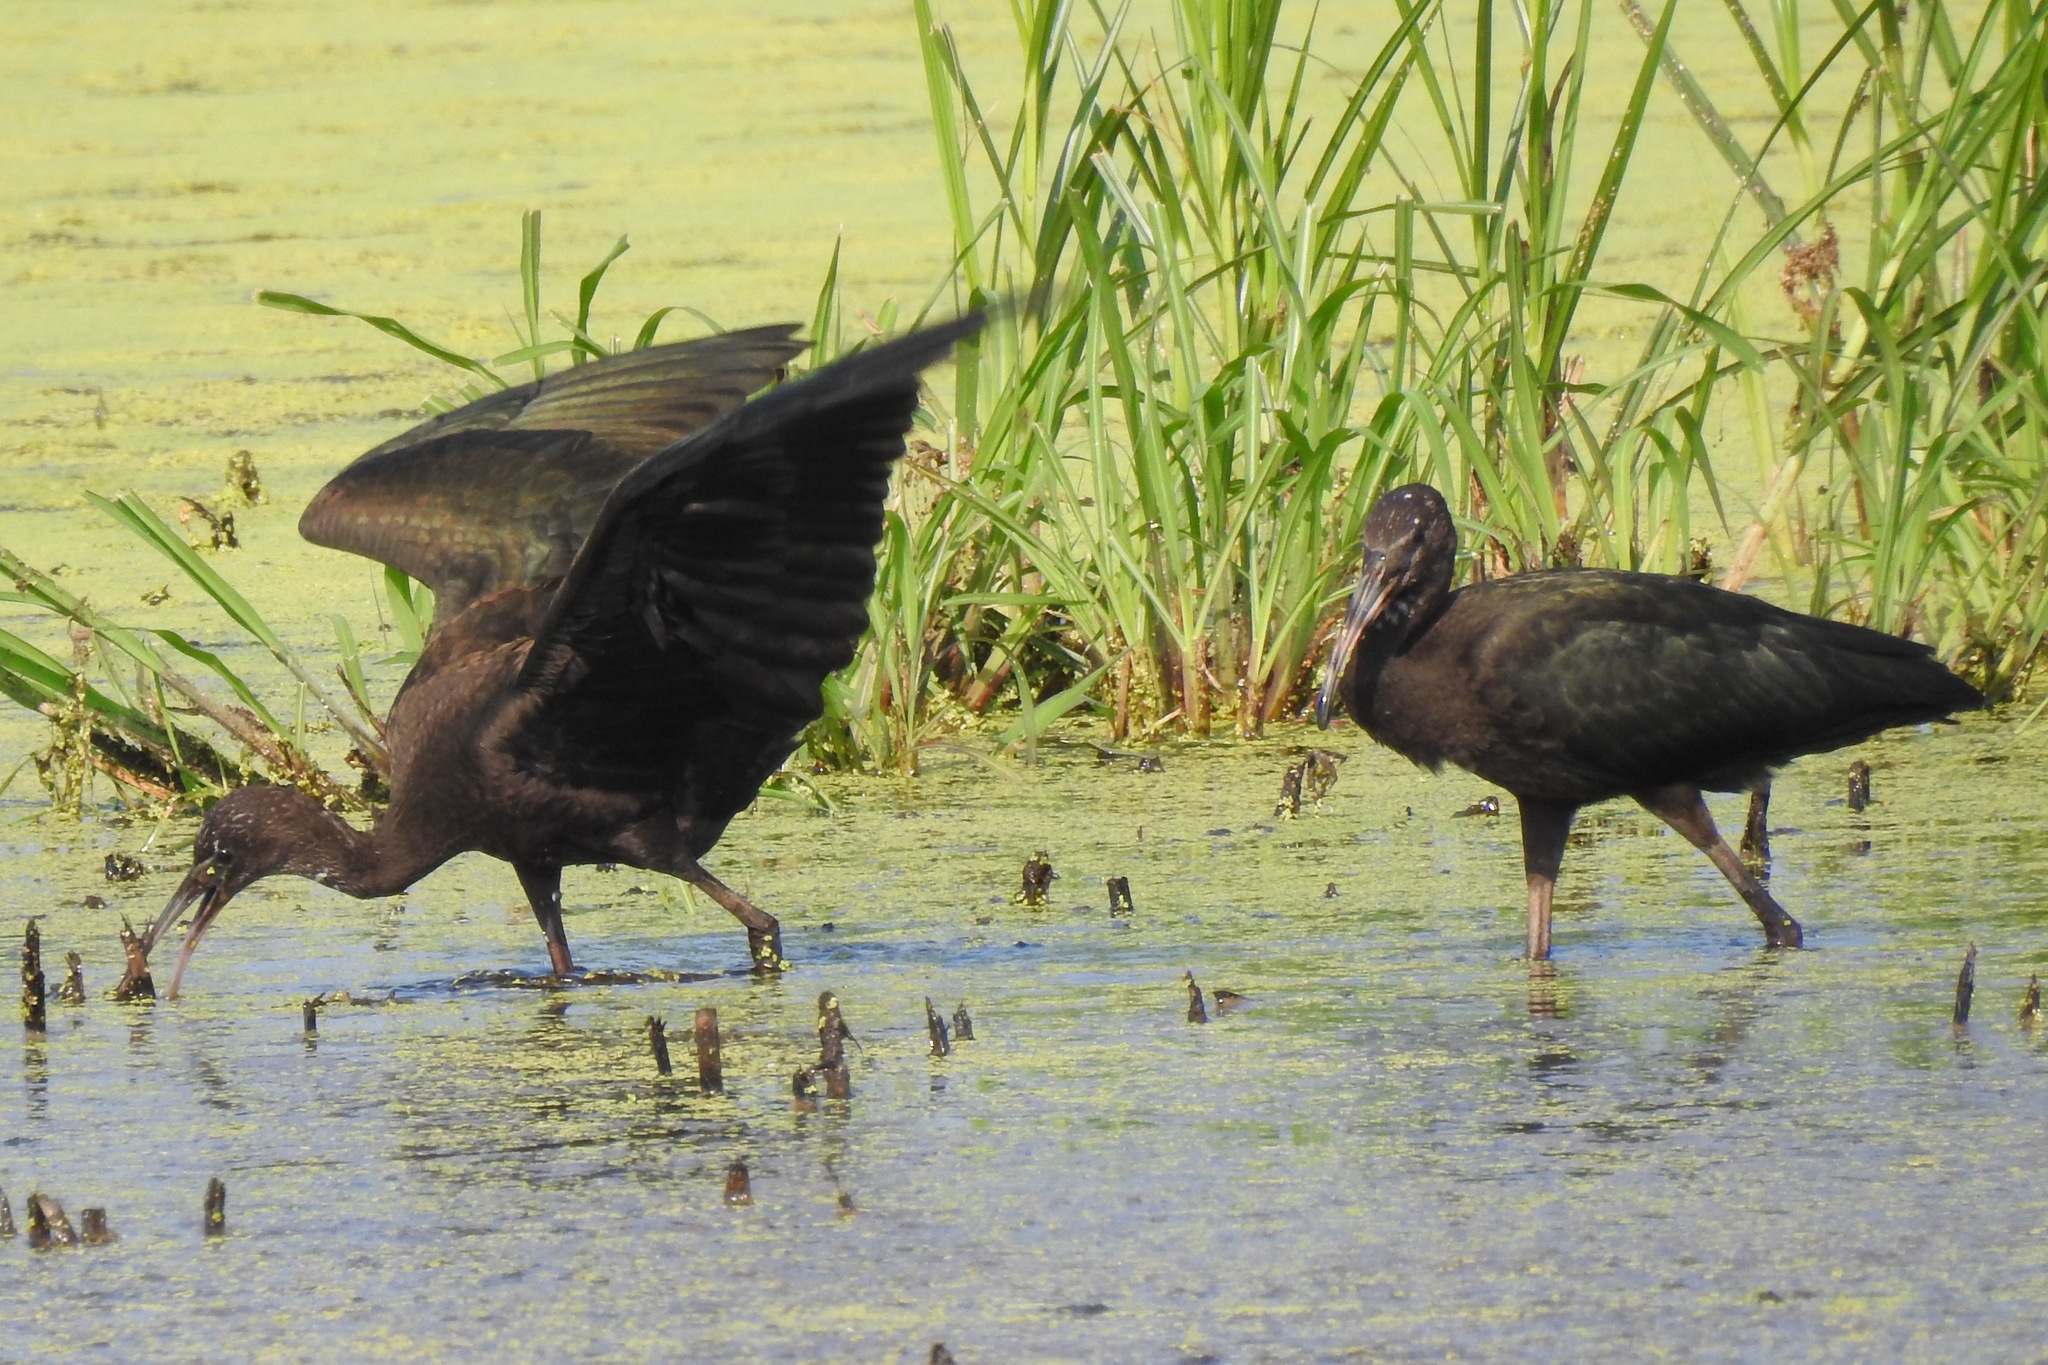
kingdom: Animalia
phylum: Chordata
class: Aves
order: Pelecaniformes
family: Threskiornithidae
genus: Plegadis
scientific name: Plegadis falcinellus
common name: Glossy ibis
